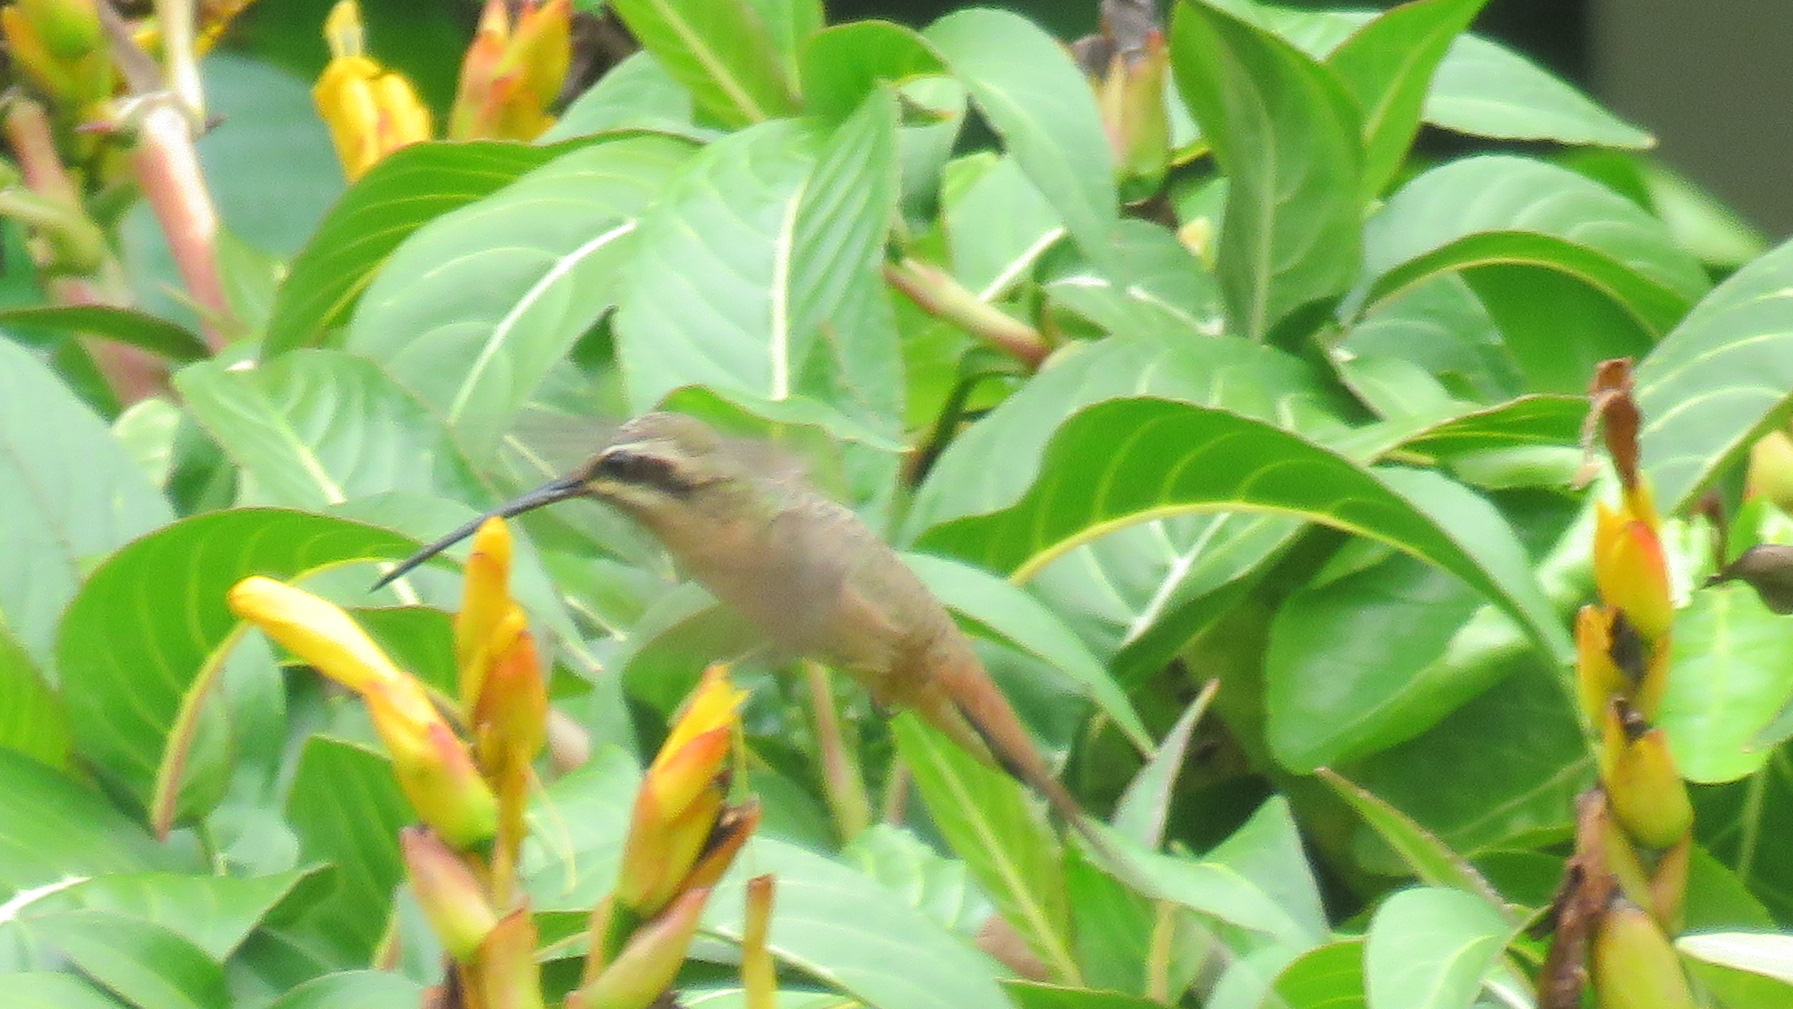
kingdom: Animalia
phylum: Chordata
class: Aves
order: Apodiformes
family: Trochilidae
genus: Phaethornis
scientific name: Phaethornis pretrei
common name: Planalto hermit
